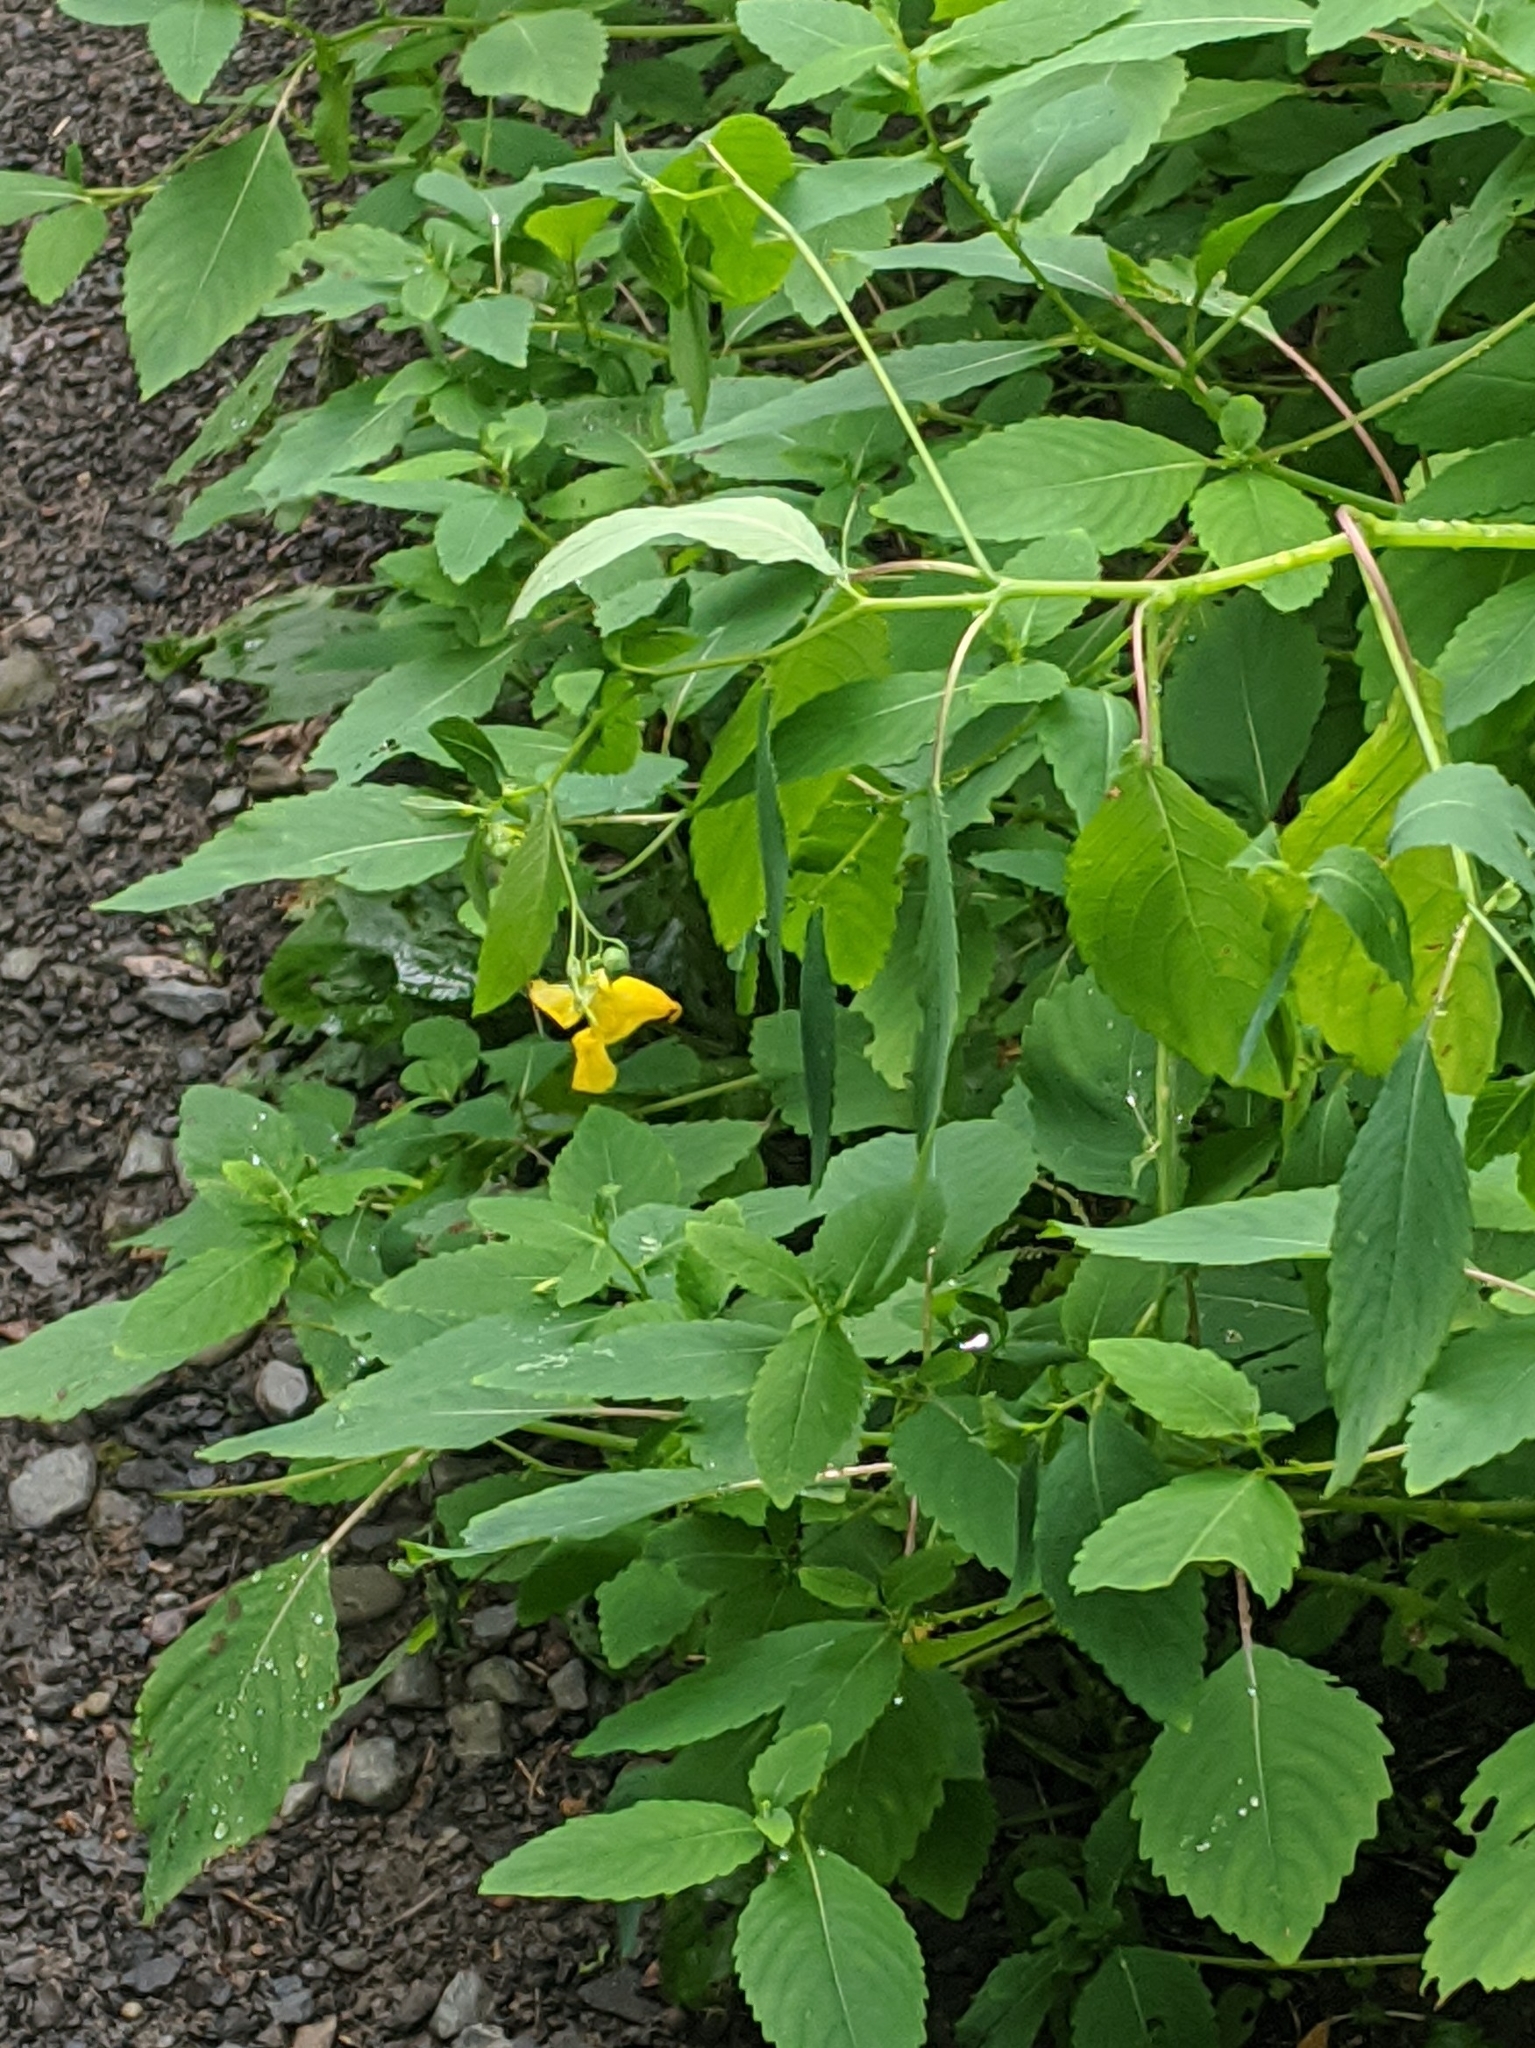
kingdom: Plantae
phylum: Tracheophyta
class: Magnoliopsida
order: Ericales
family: Balsaminaceae
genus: Impatiens
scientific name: Impatiens pallida
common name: Pale snapweed
